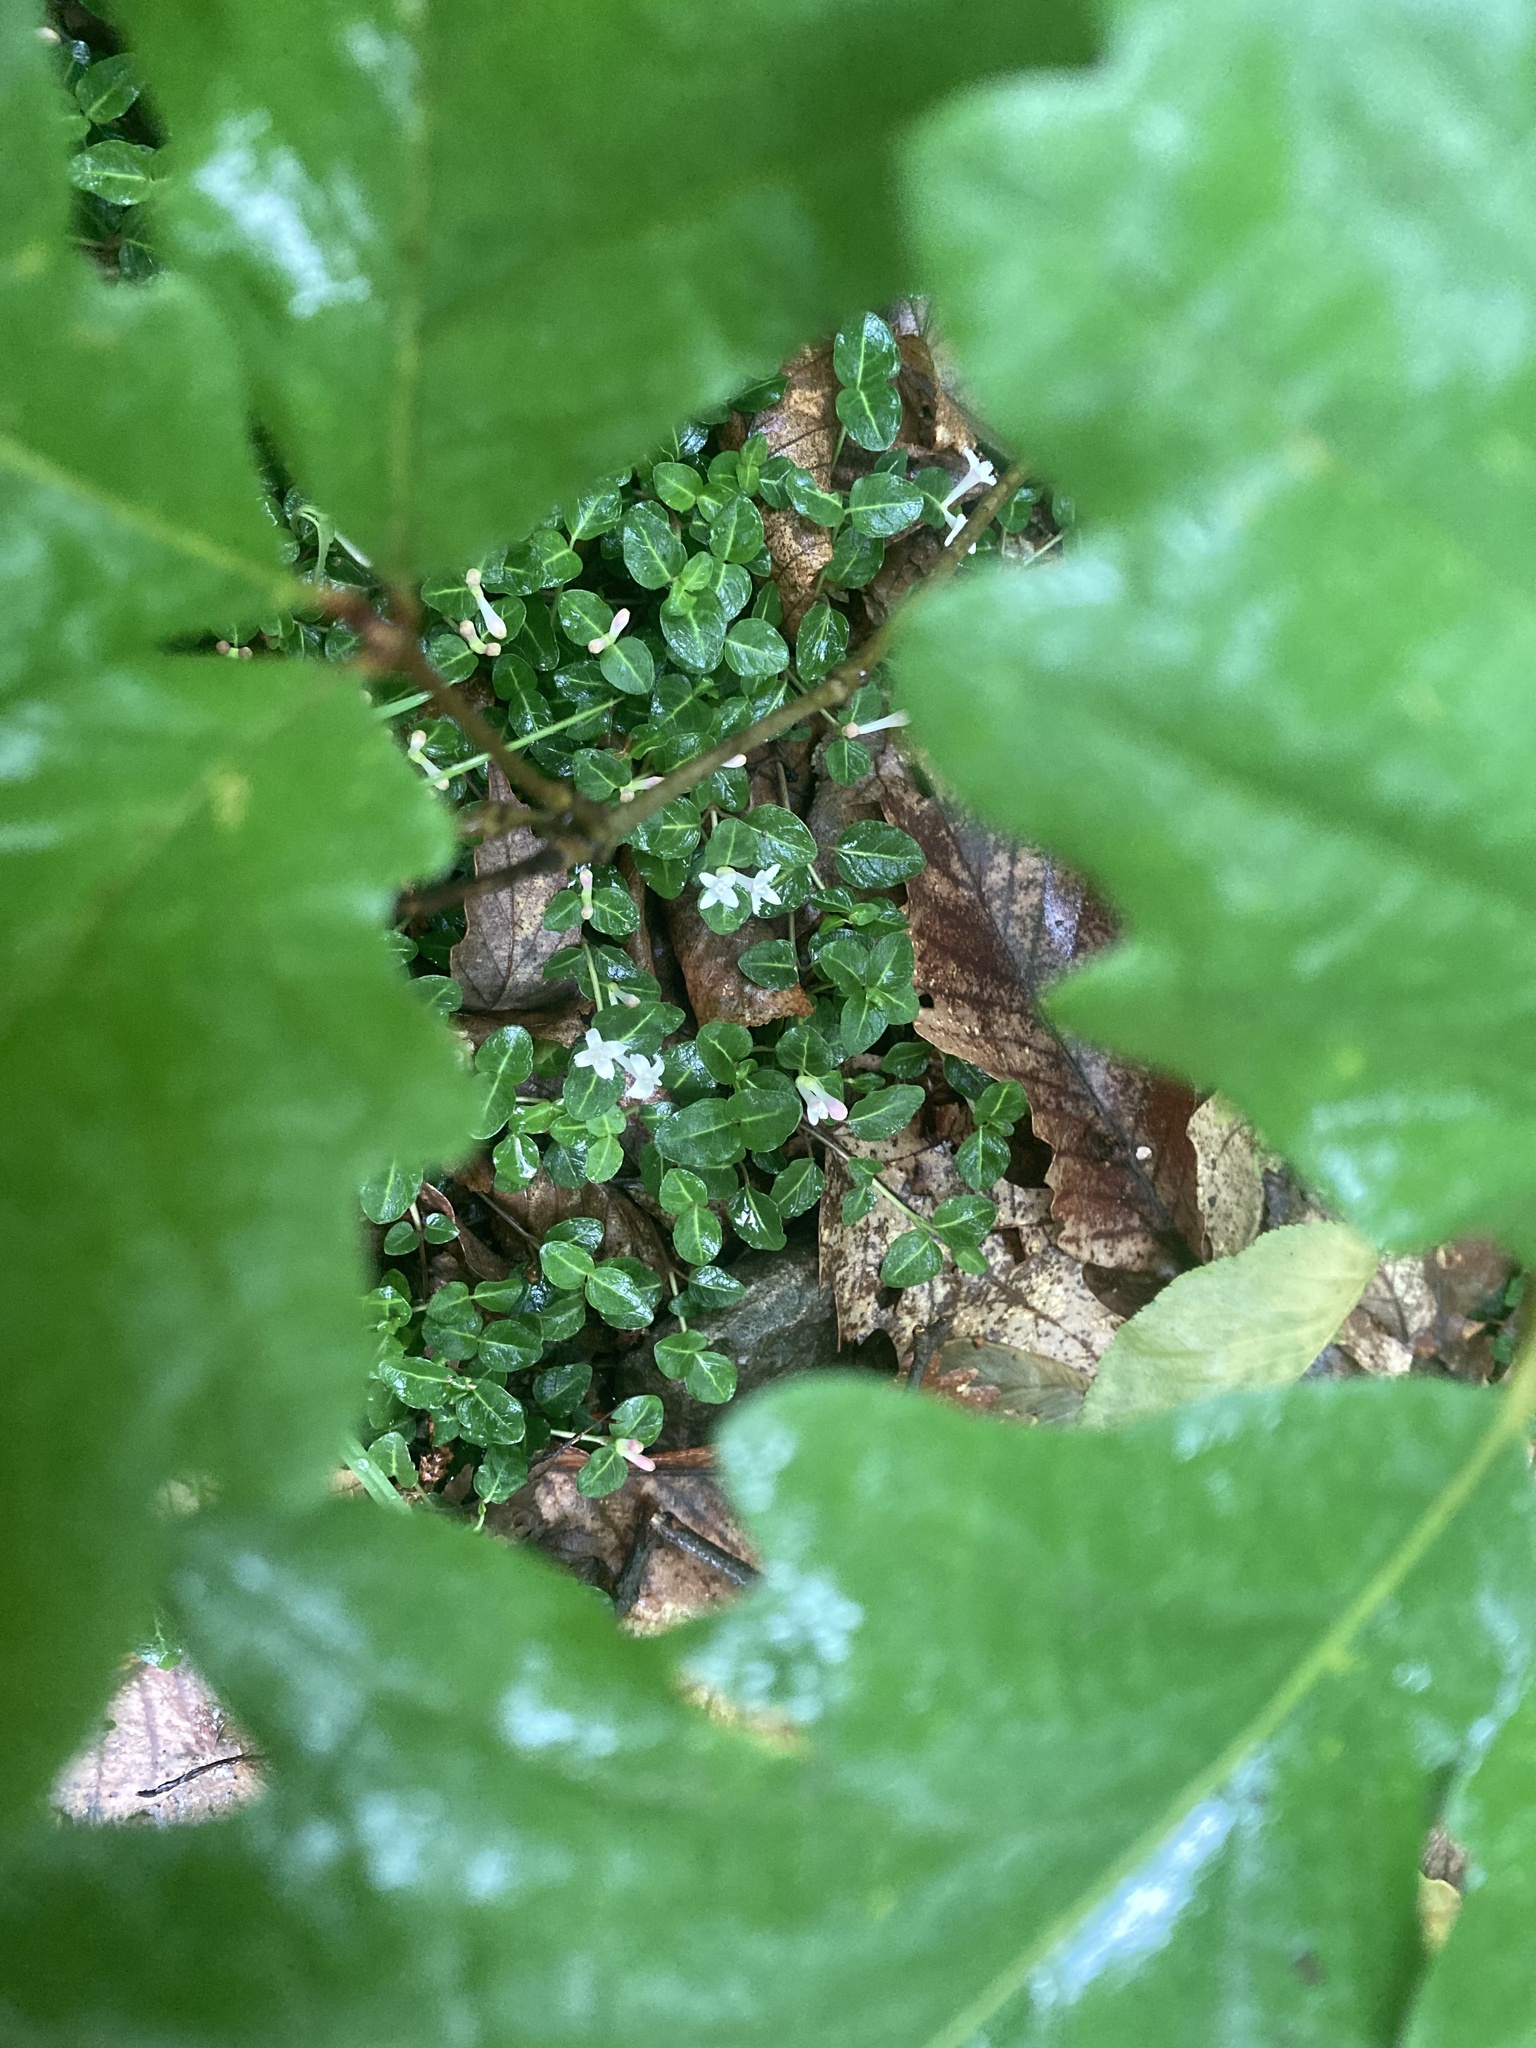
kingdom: Plantae
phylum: Tracheophyta
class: Magnoliopsida
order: Gentianales
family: Rubiaceae
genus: Mitchella
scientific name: Mitchella repens
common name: Partridge-berry
